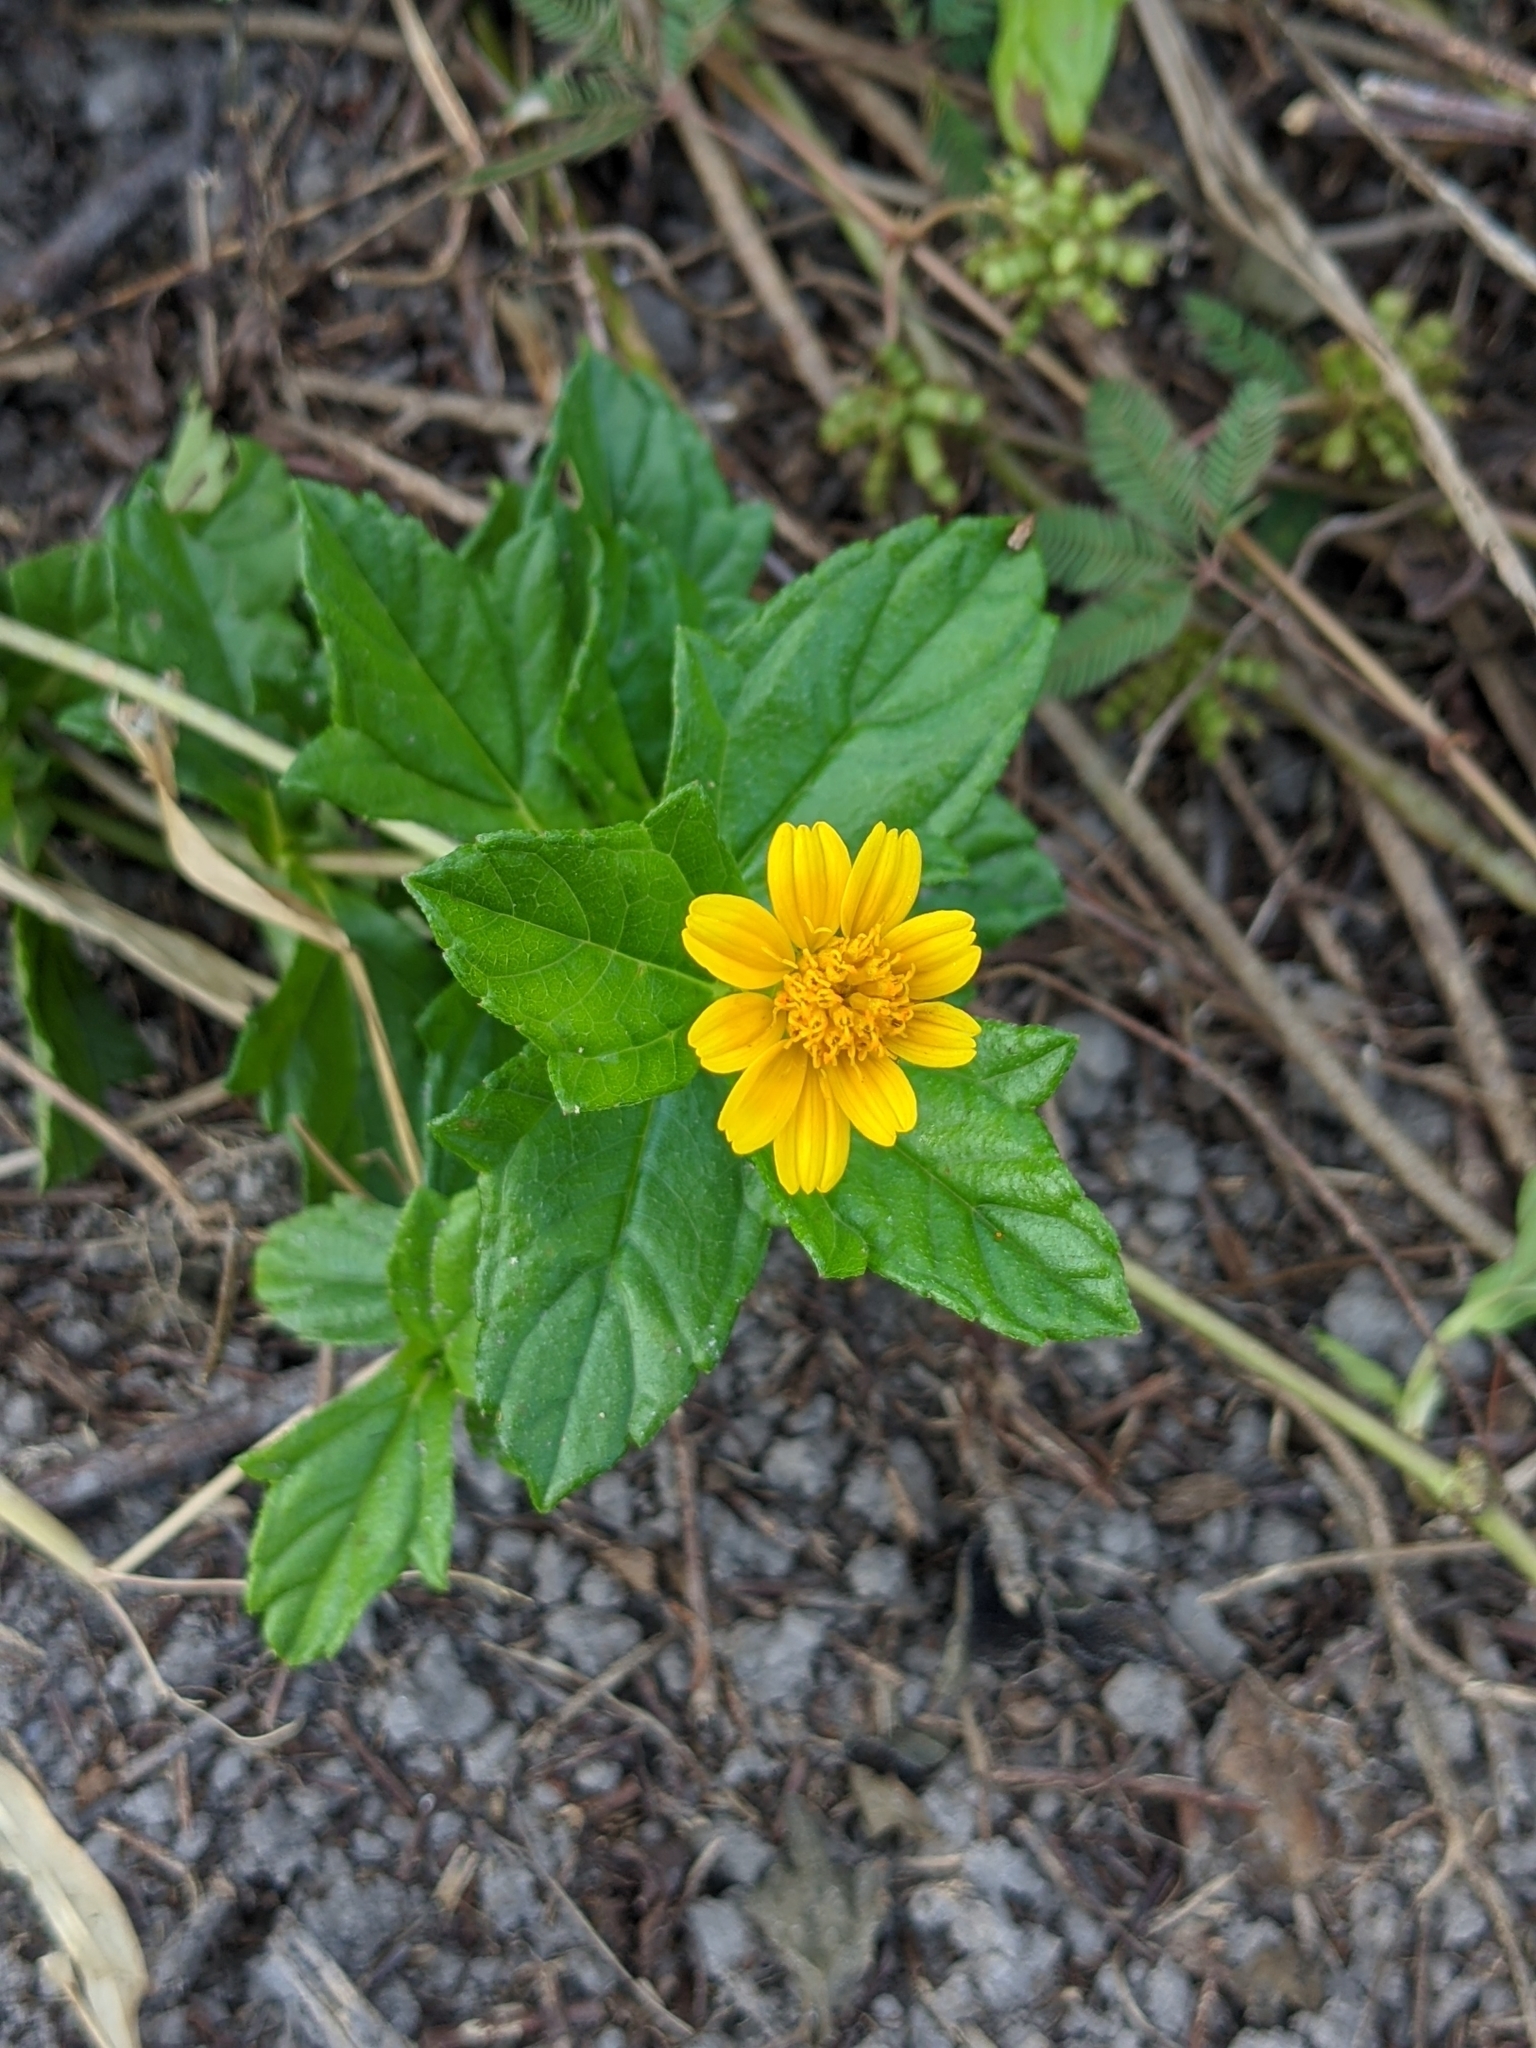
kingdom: Plantae
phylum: Tracheophyta
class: Magnoliopsida
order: Asterales
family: Asteraceae
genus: Sphagneticola
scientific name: Sphagneticola trilobata
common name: Bay biscayne creeping-oxeye
